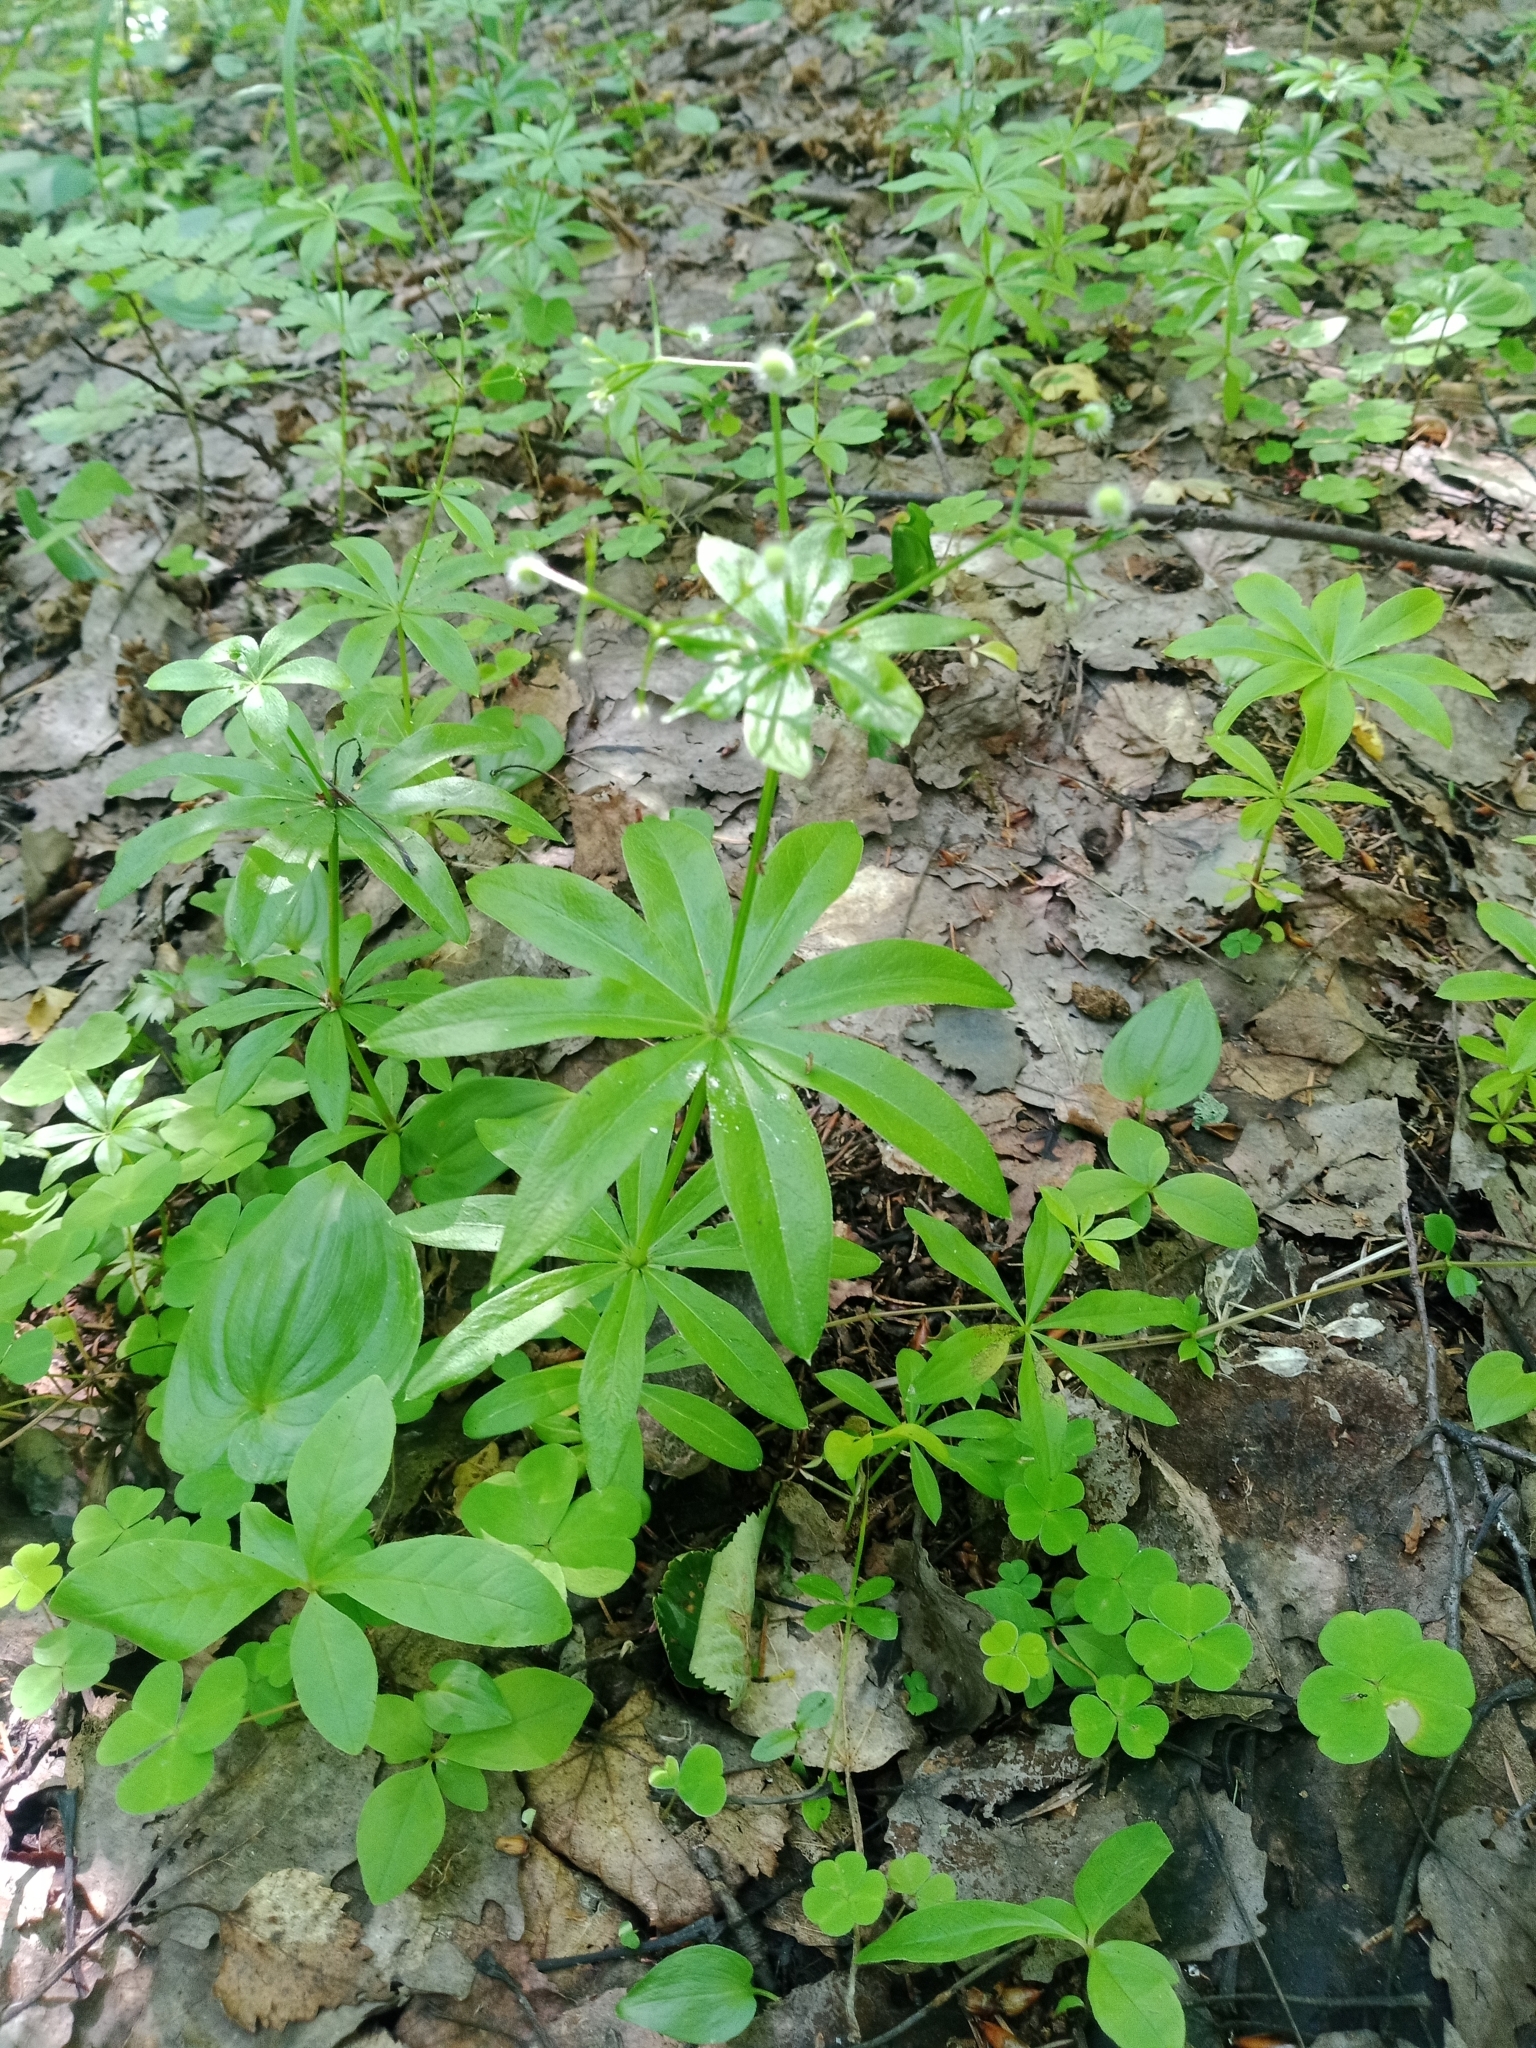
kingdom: Plantae
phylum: Tracheophyta
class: Magnoliopsida
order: Gentianales
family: Rubiaceae
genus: Galium
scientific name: Galium odoratum
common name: Sweet woodruff
